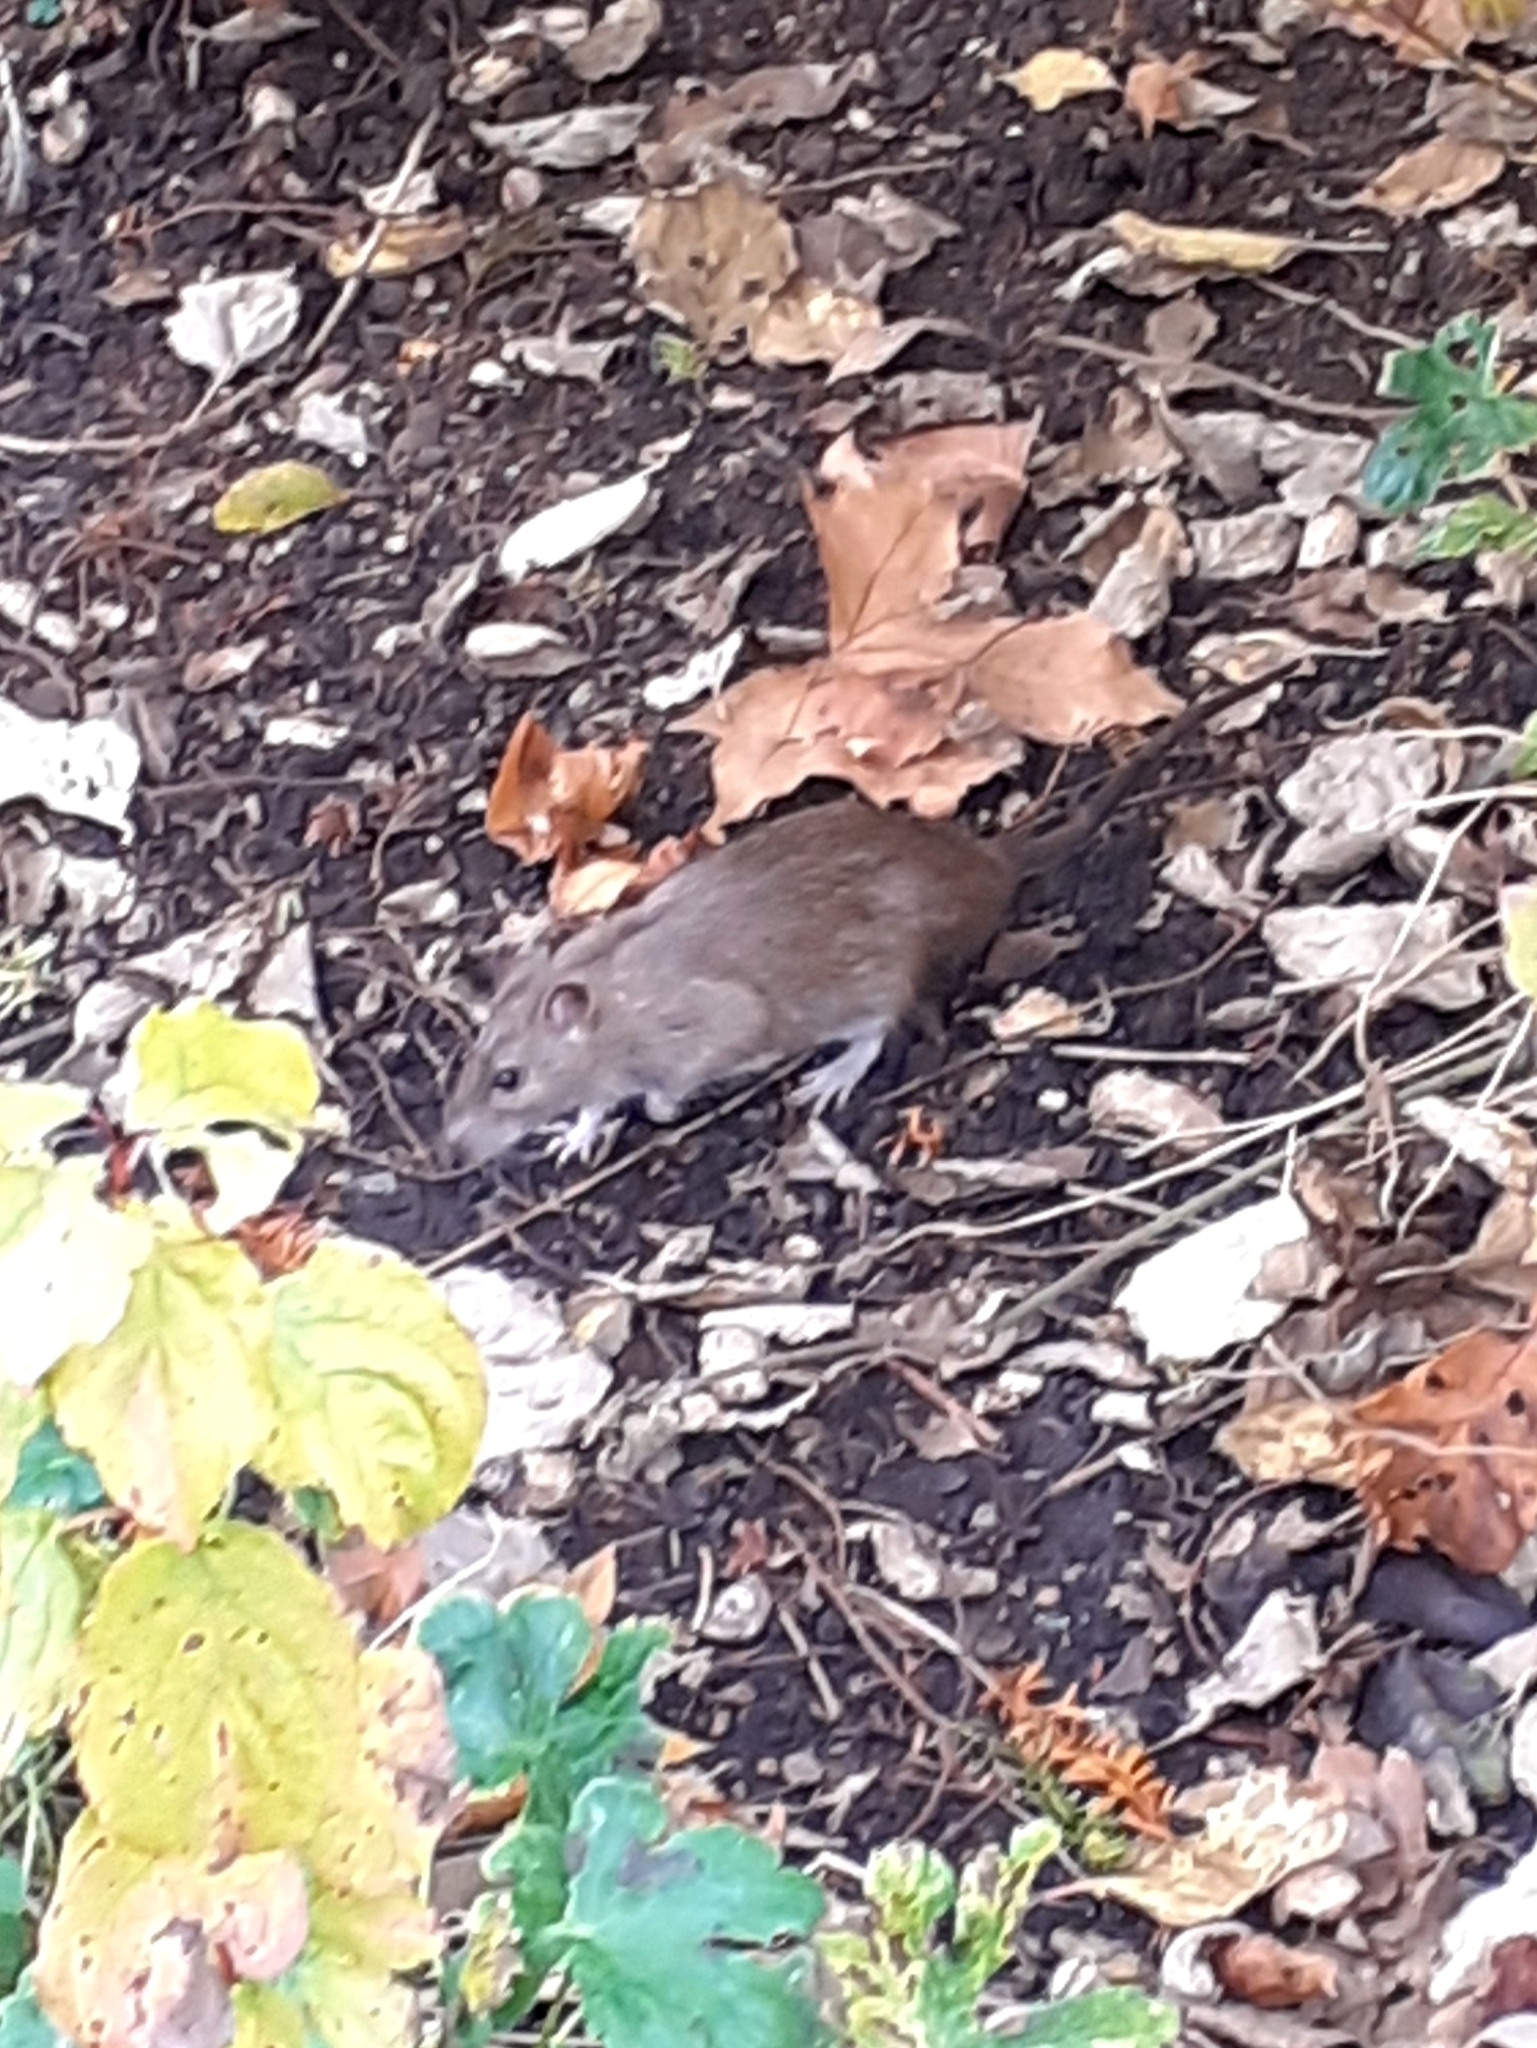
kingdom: Animalia
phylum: Chordata
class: Mammalia
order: Rodentia
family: Muridae
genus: Rattus
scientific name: Rattus norvegicus
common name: Brown rat
